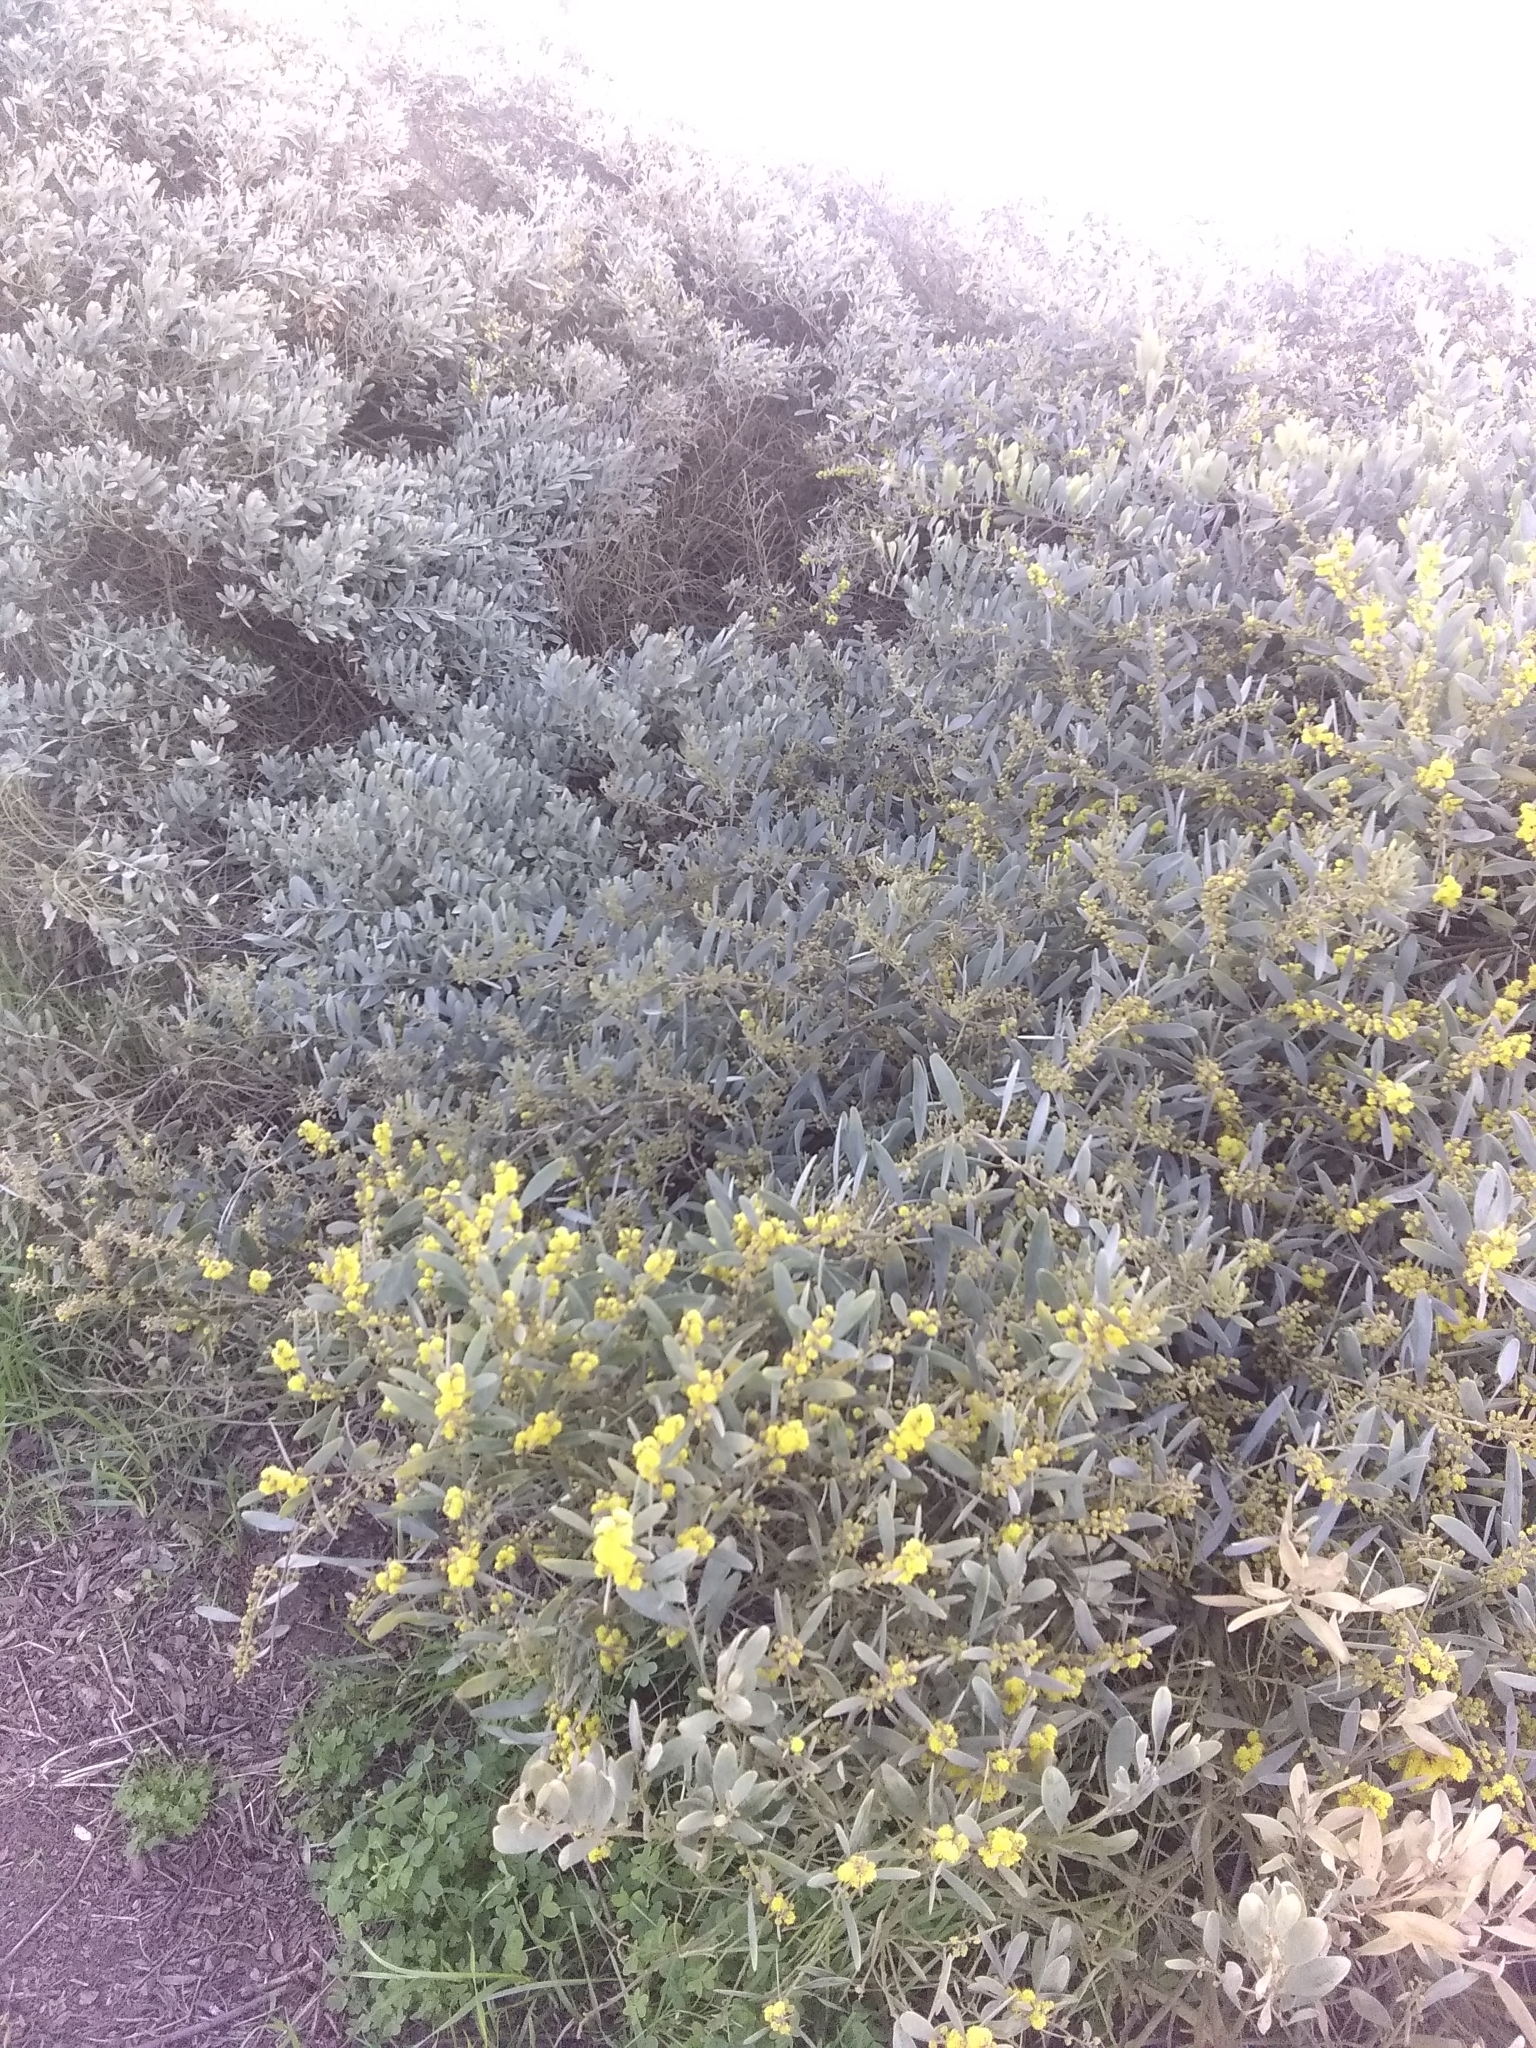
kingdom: Plantae
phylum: Tracheophyta
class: Magnoliopsida
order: Fabales
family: Fabaceae
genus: Acacia
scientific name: Acacia redolens
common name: Bank catclaw
